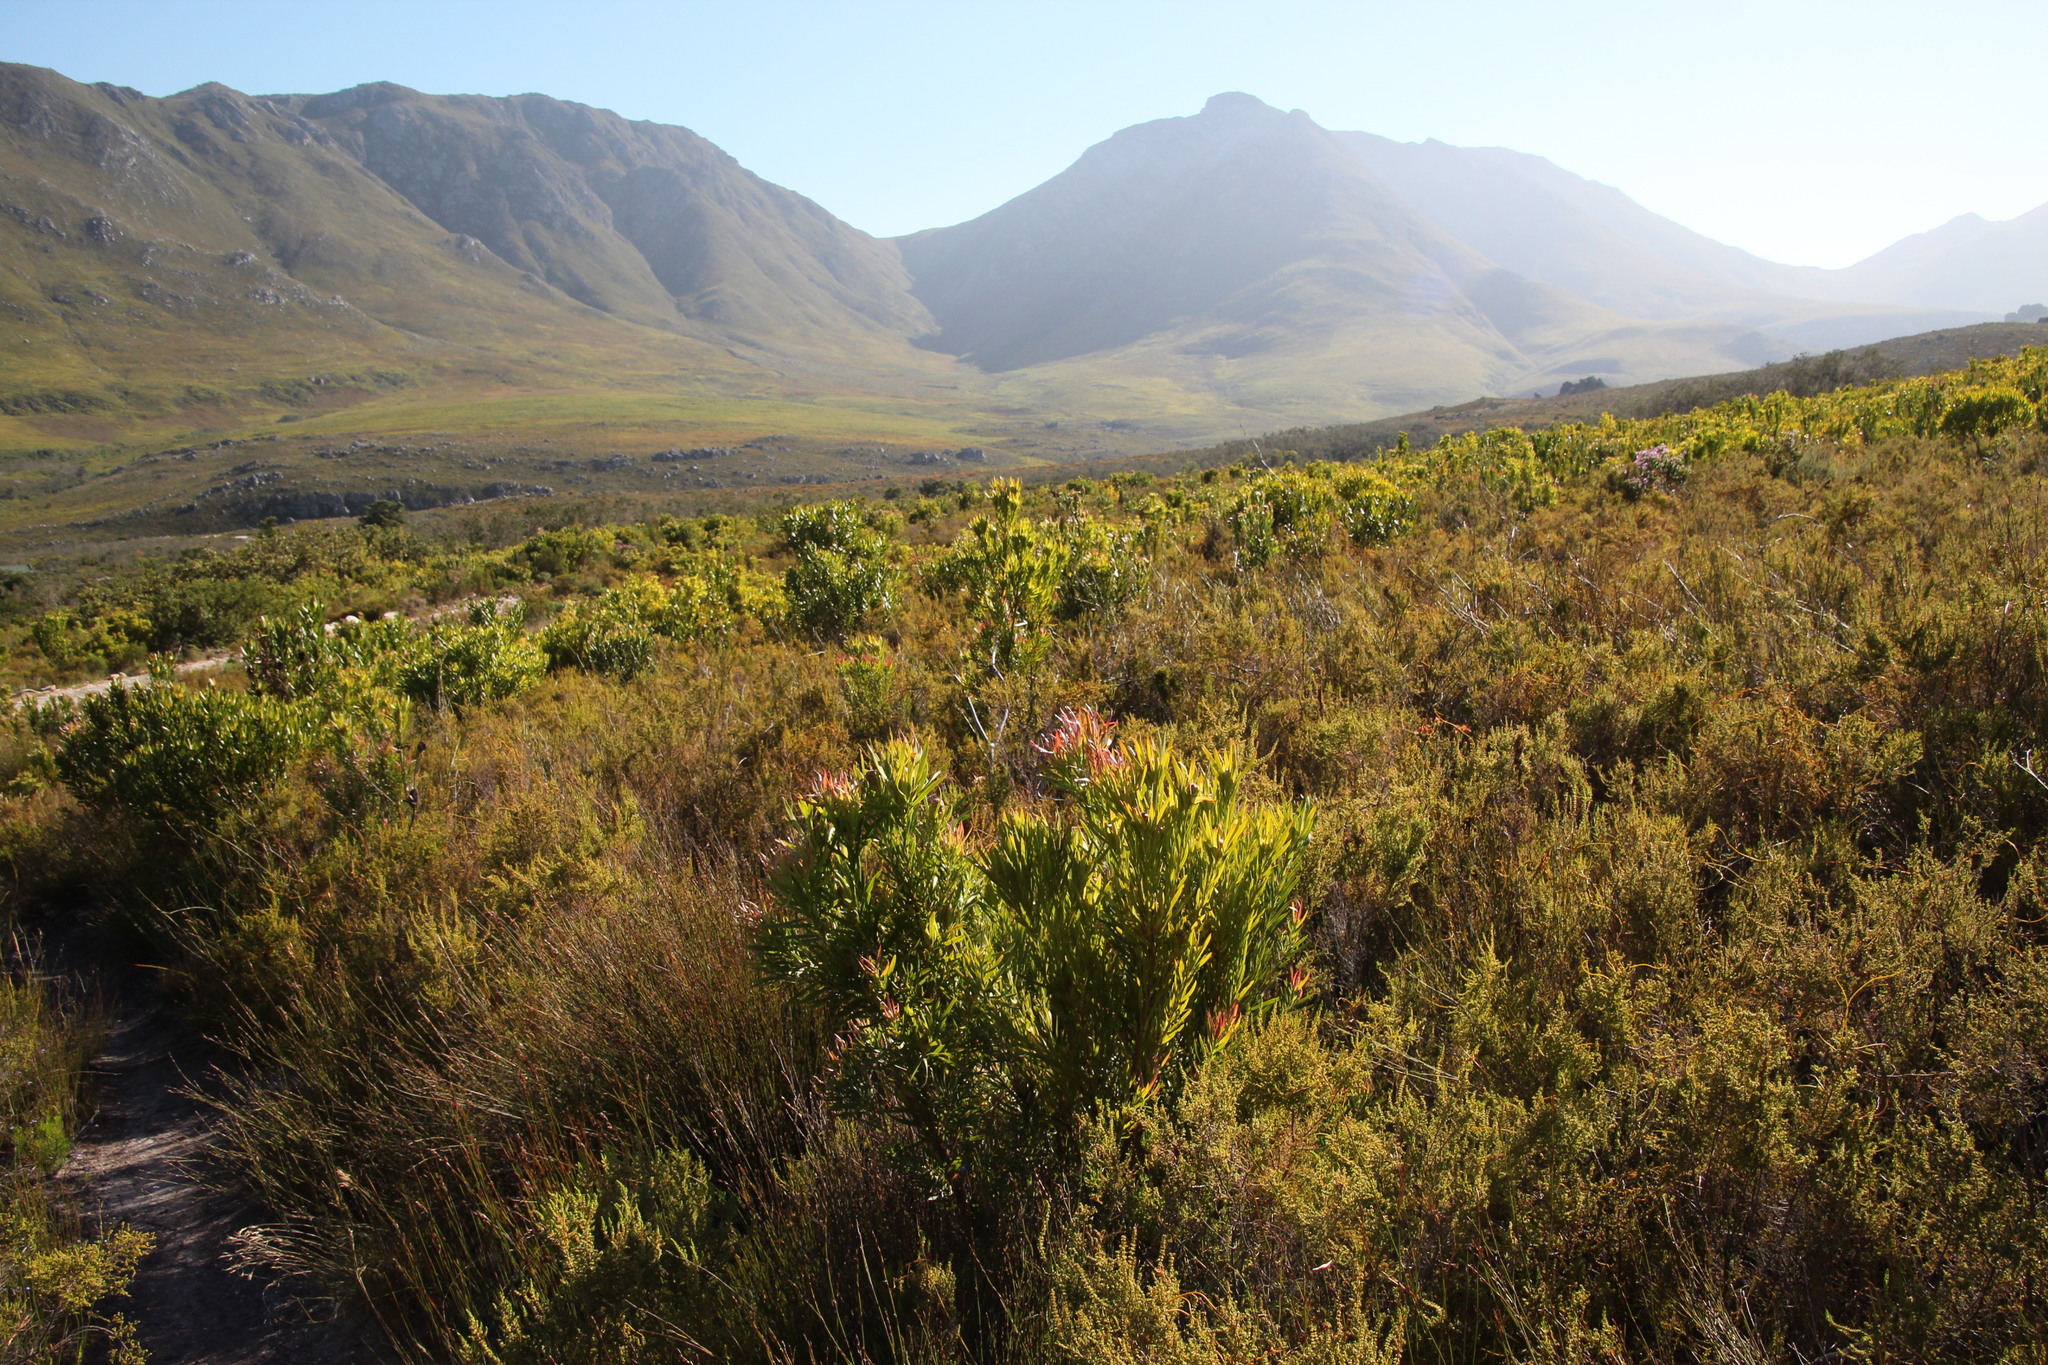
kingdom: Plantae
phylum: Tracheophyta
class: Magnoliopsida
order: Proteales
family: Proteaceae
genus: Leucadendron
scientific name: Leucadendron xanthoconus
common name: Sickle-leaf conebush
